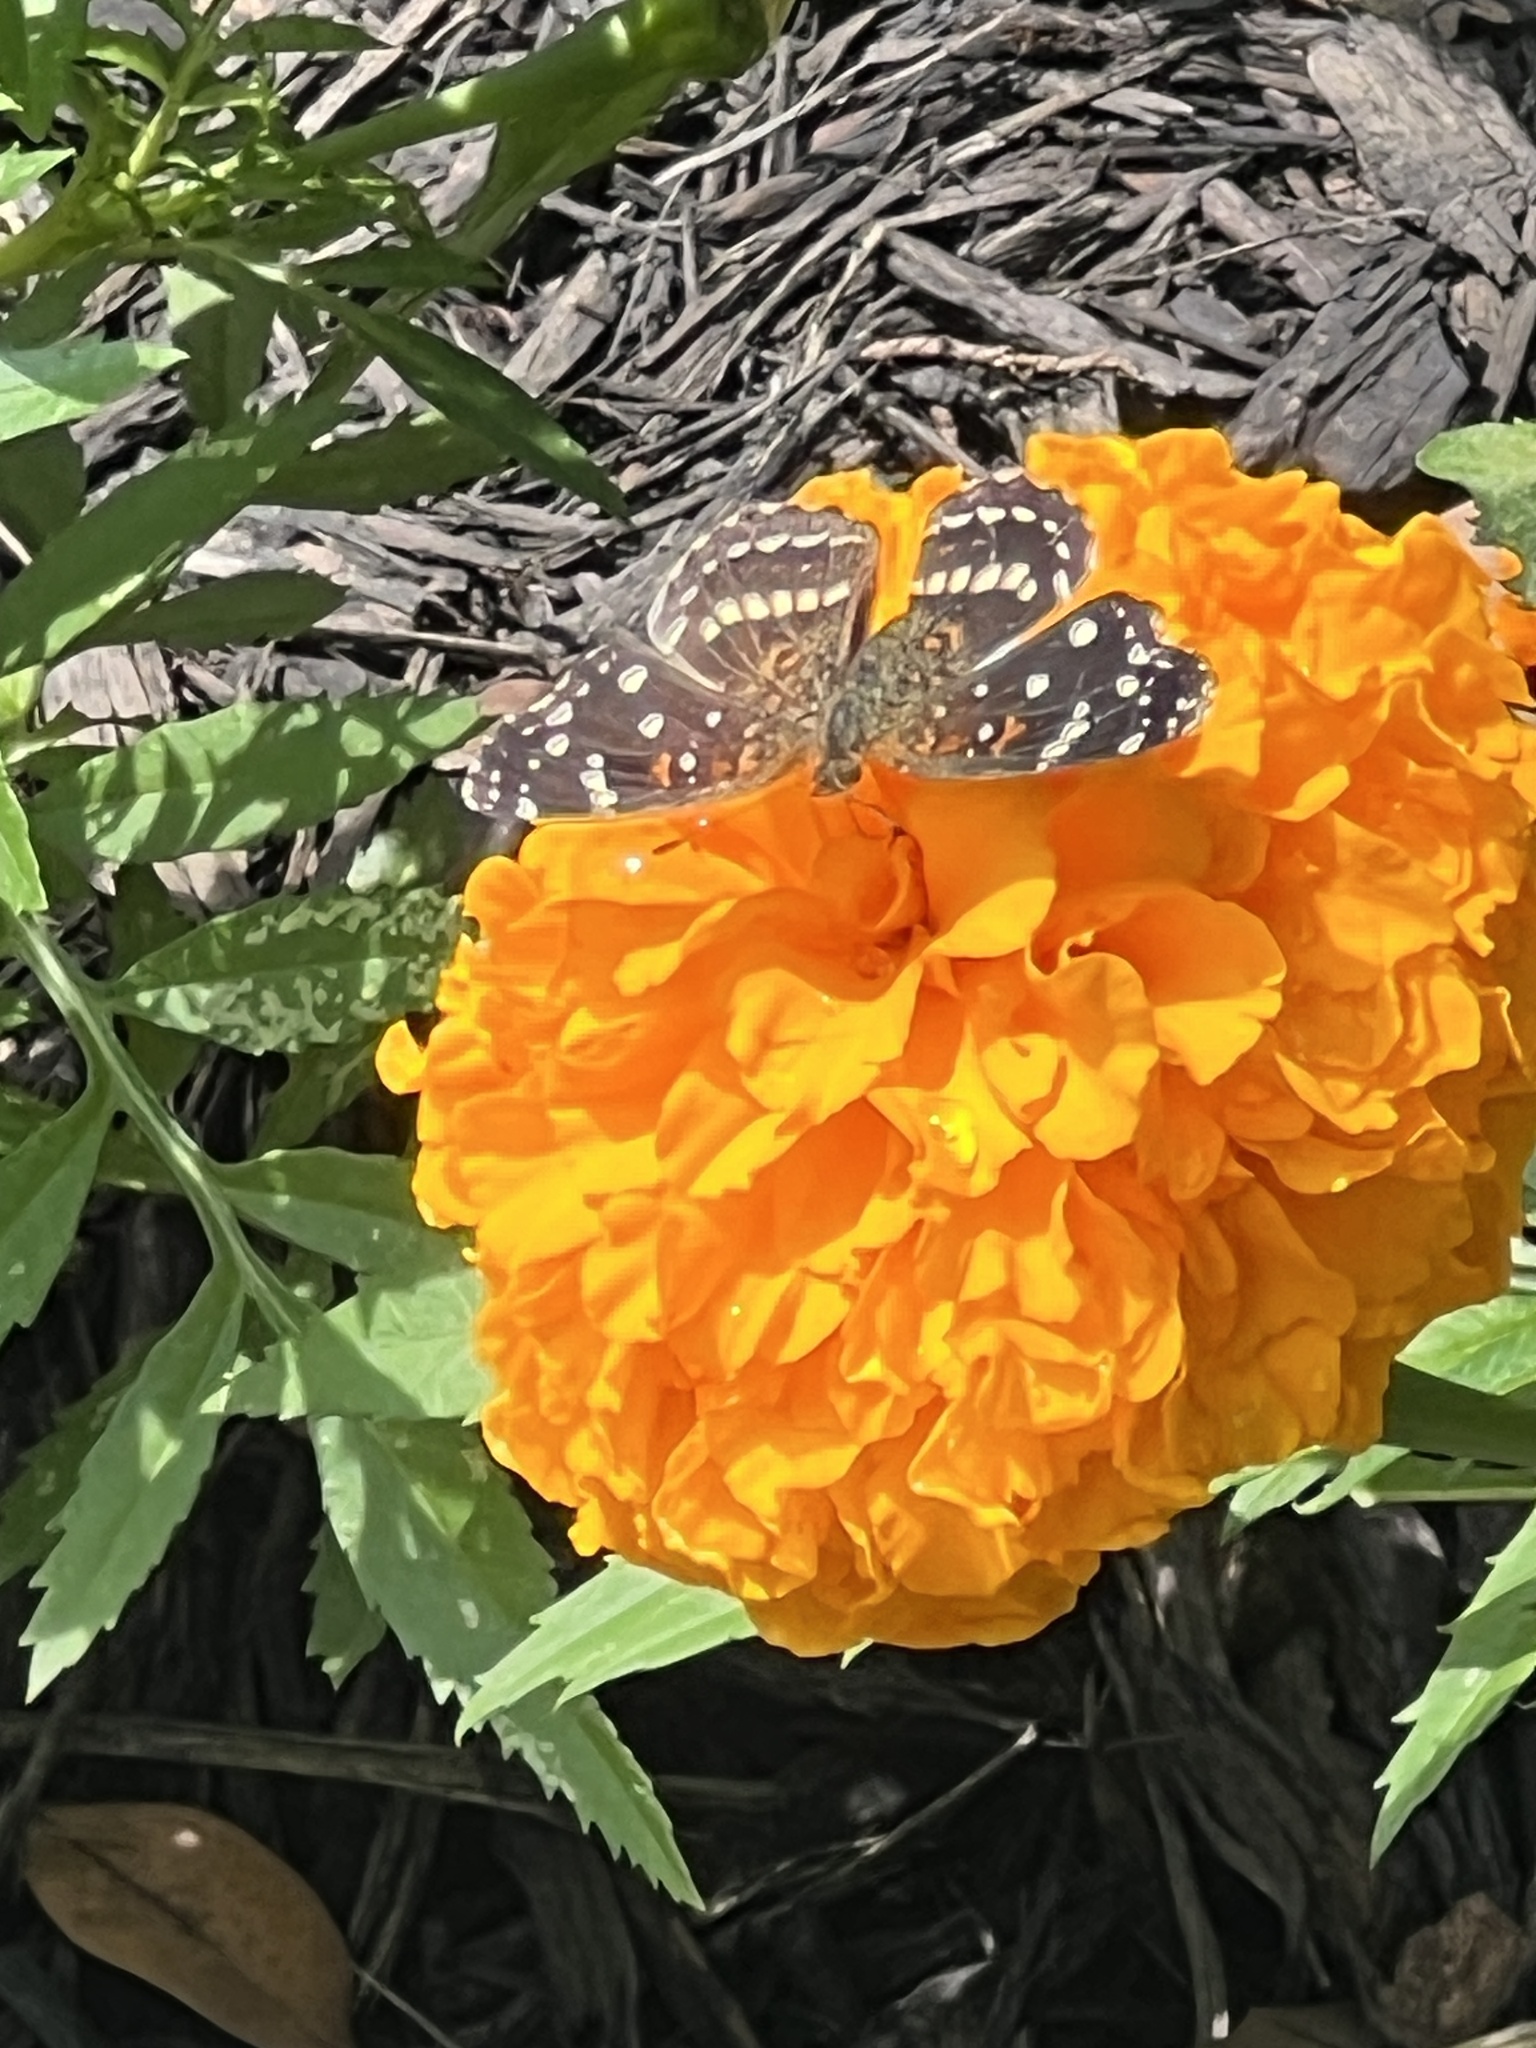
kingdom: Animalia
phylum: Arthropoda
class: Insecta
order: Lepidoptera
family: Nymphalidae
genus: Anthanassa
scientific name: Anthanassa texana
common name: Texan crescent
